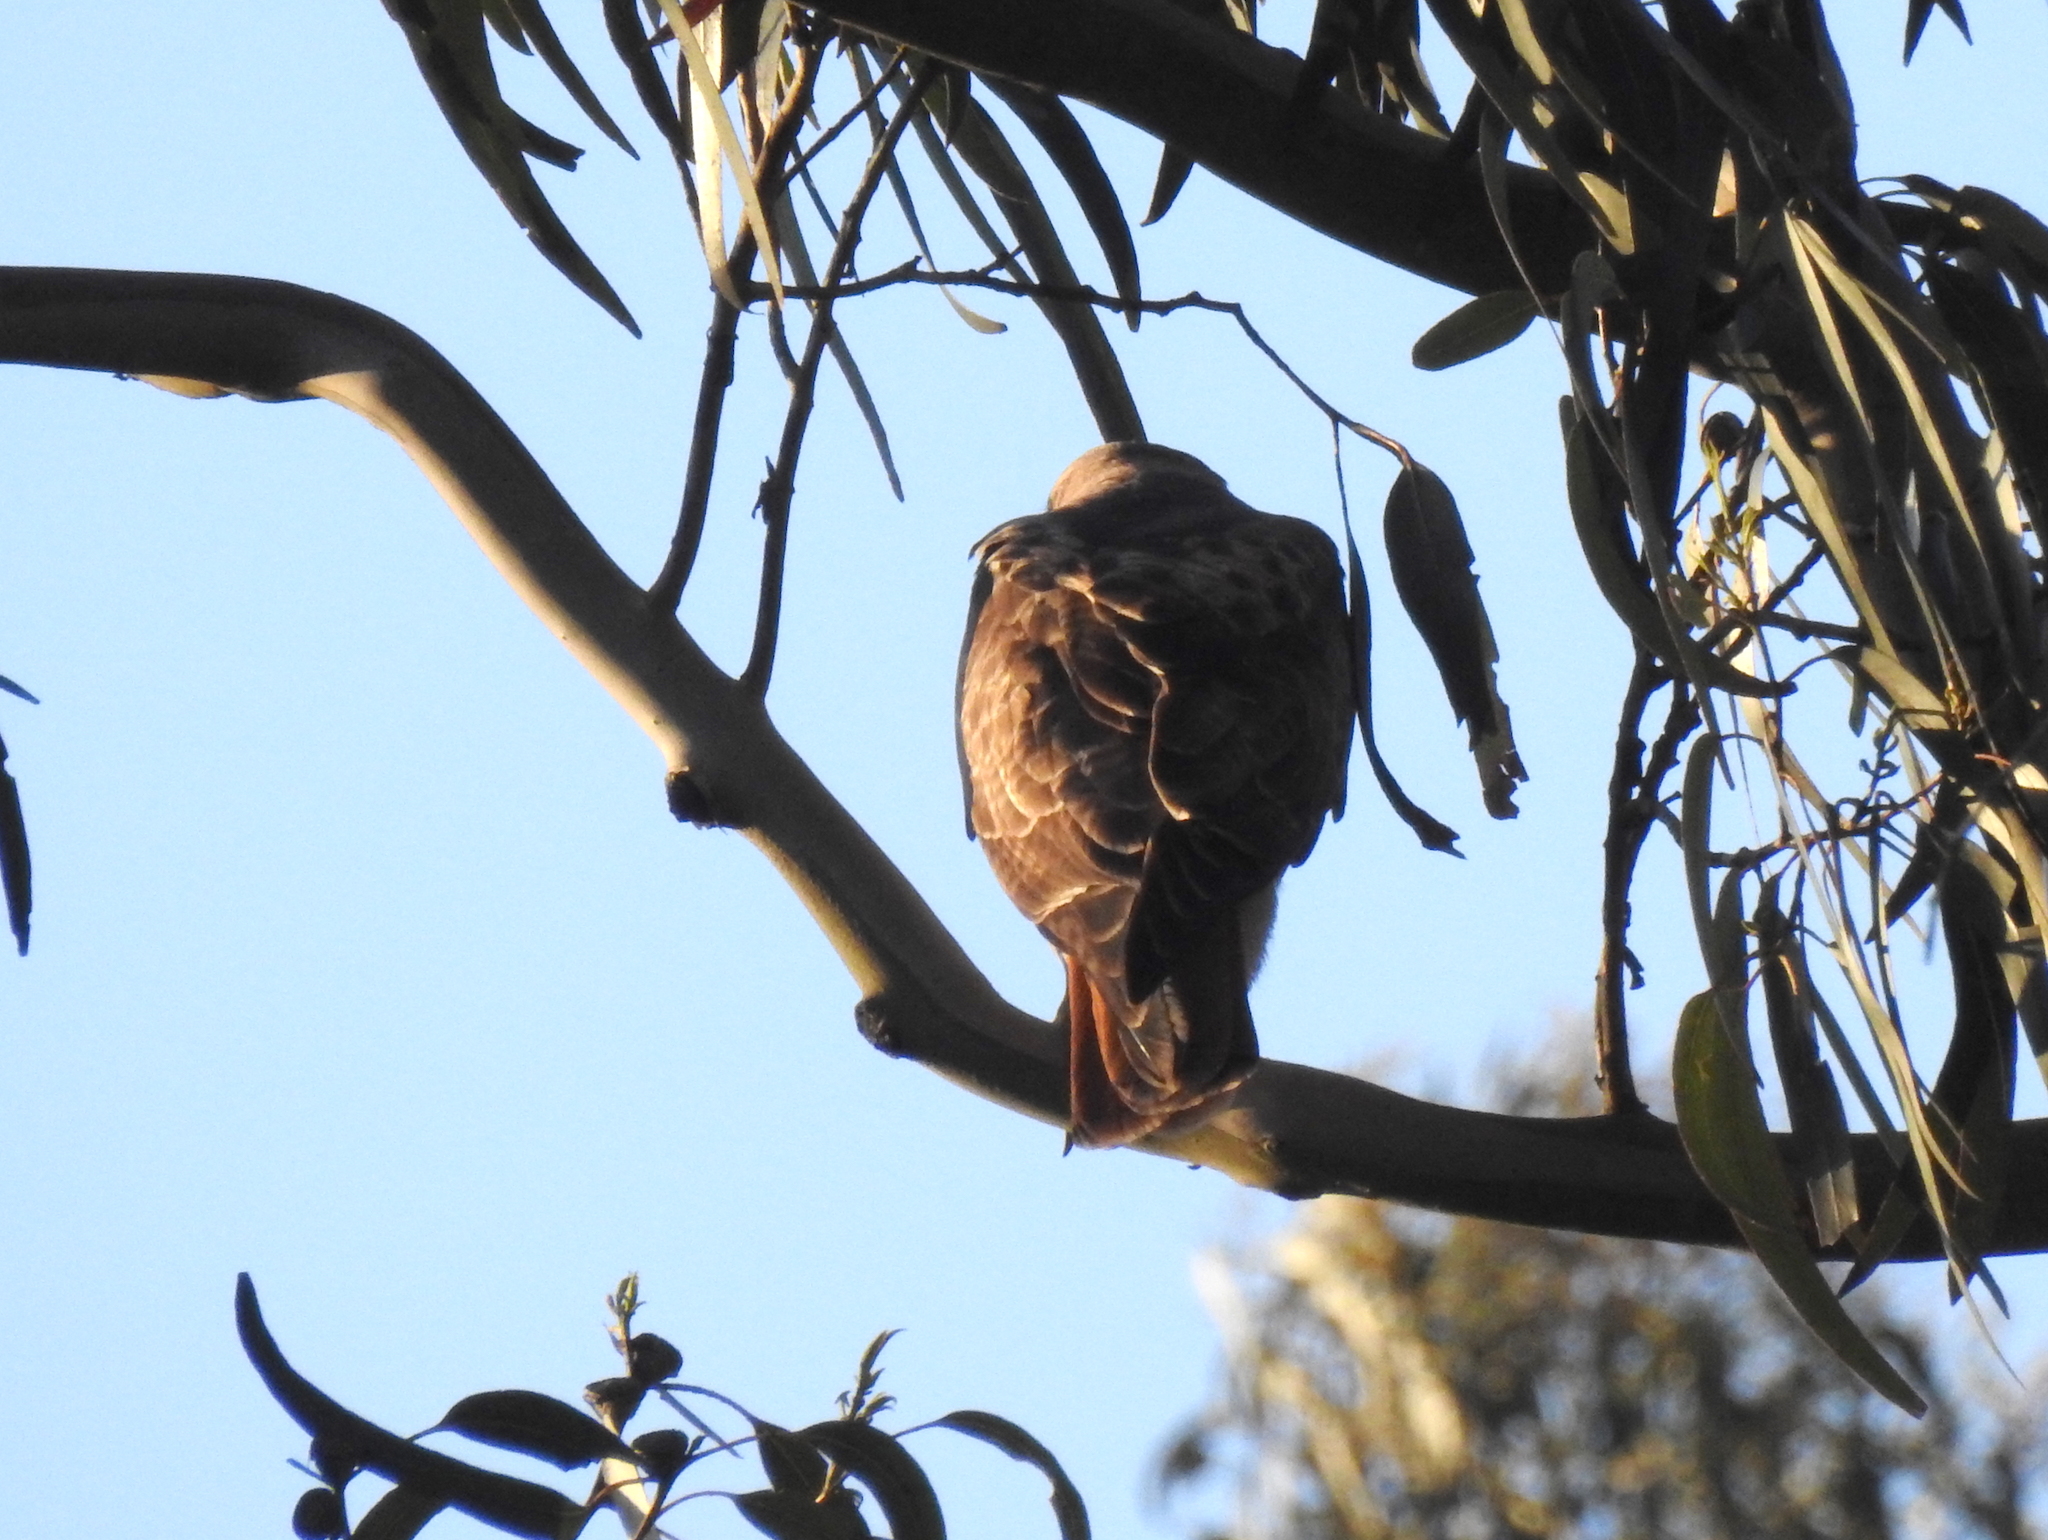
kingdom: Animalia
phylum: Chordata
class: Aves
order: Accipitriformes
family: Accipitridae
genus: Buteo
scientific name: Buteo jamaicensis
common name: Red-tailed hawk
